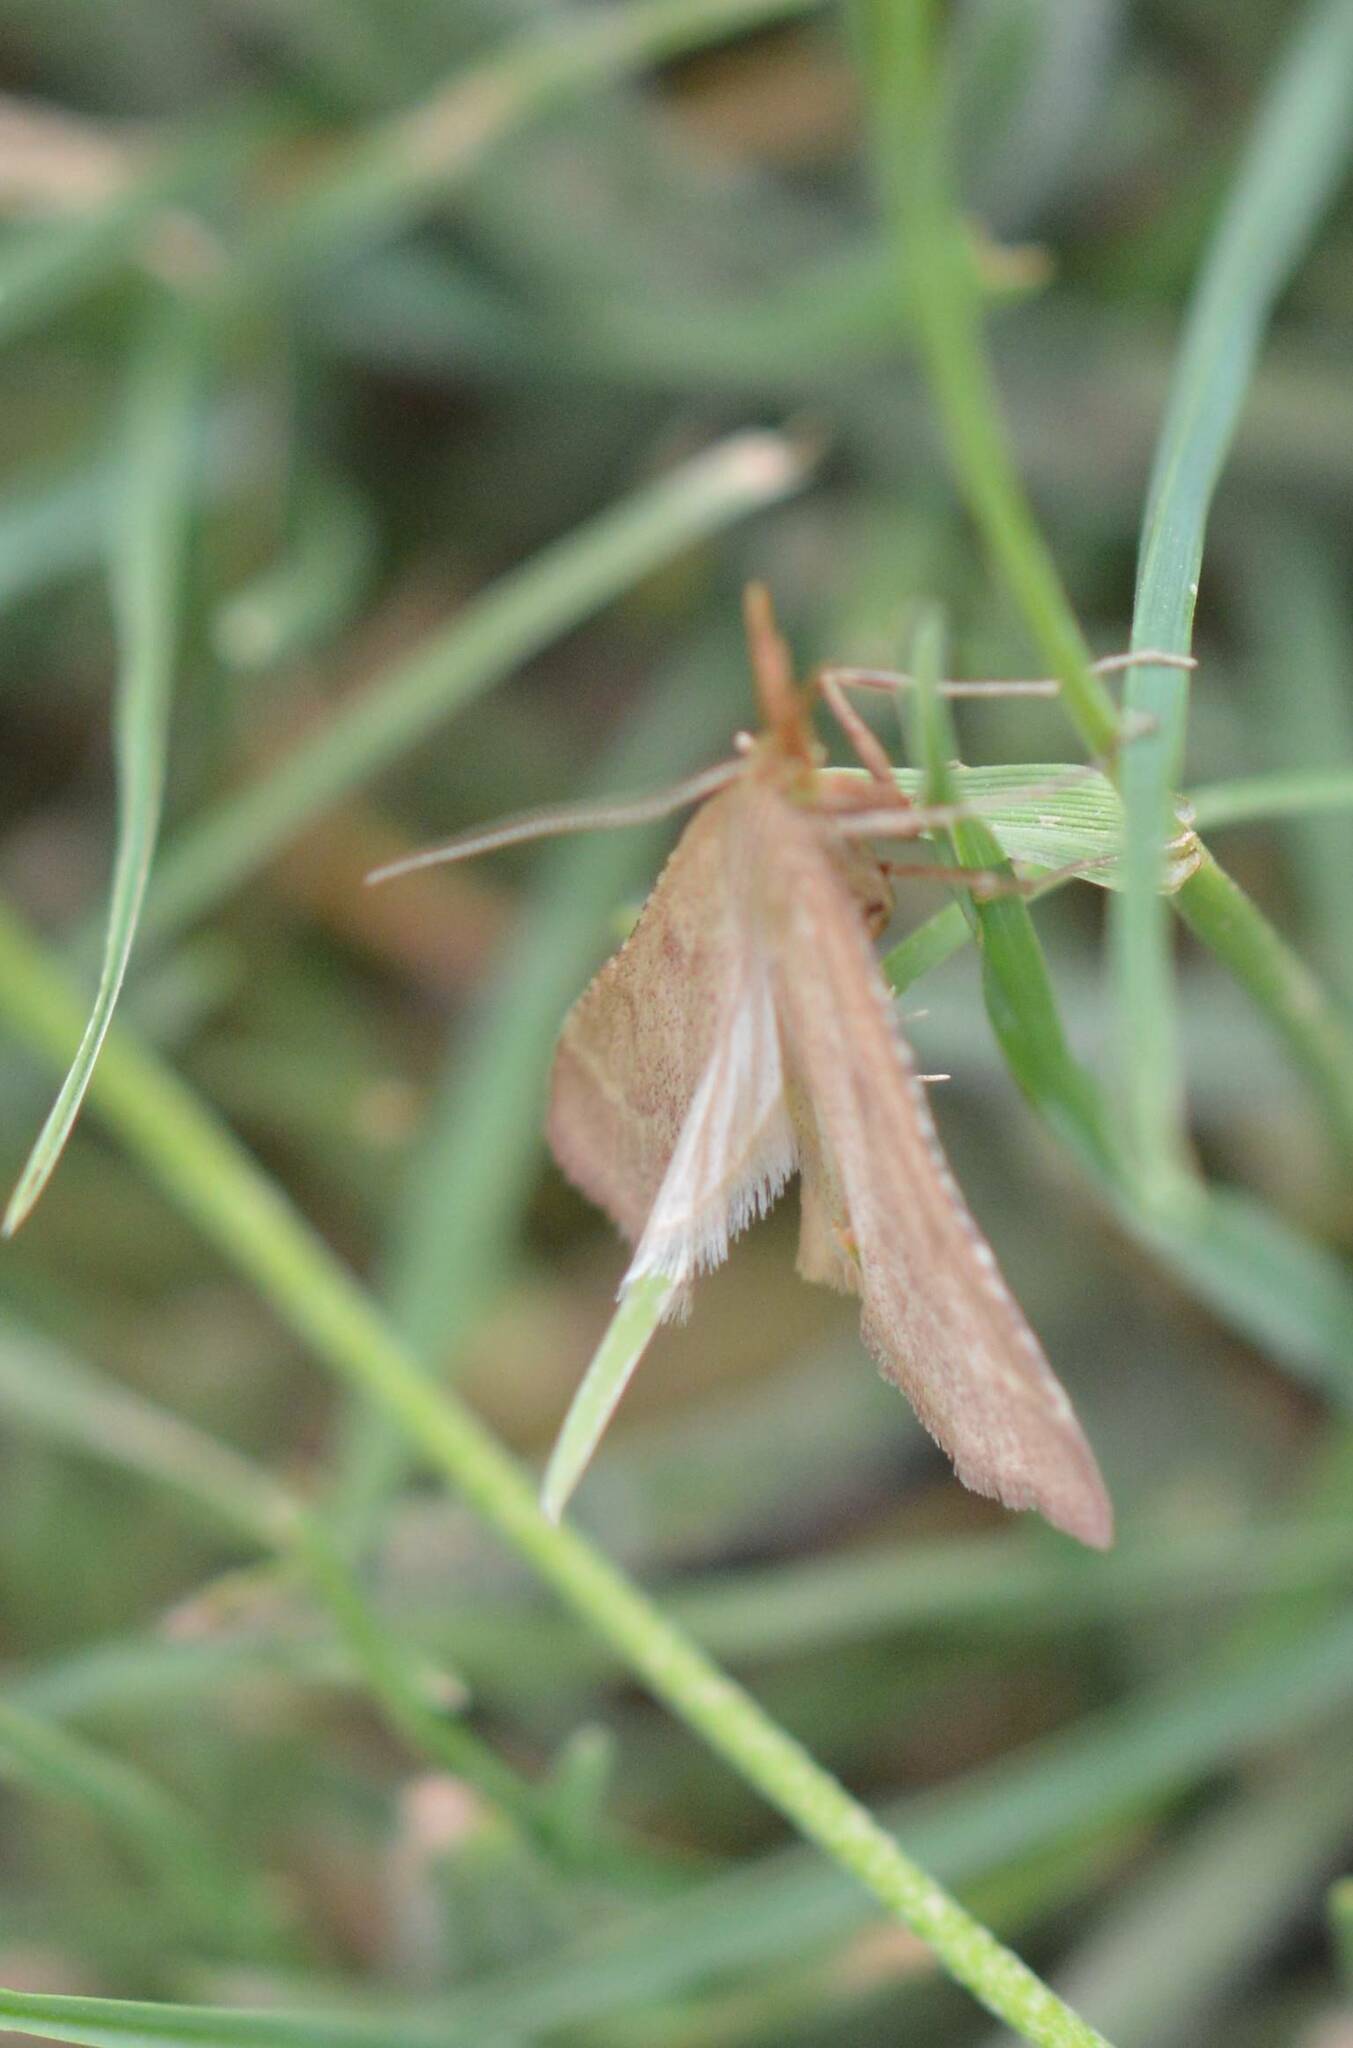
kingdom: Animalia
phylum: Arthropoda
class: Insecta
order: Lepidoptera
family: Pyralidae
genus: Synaphe
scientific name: Synaphe punctalis
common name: Long-legged tabby
